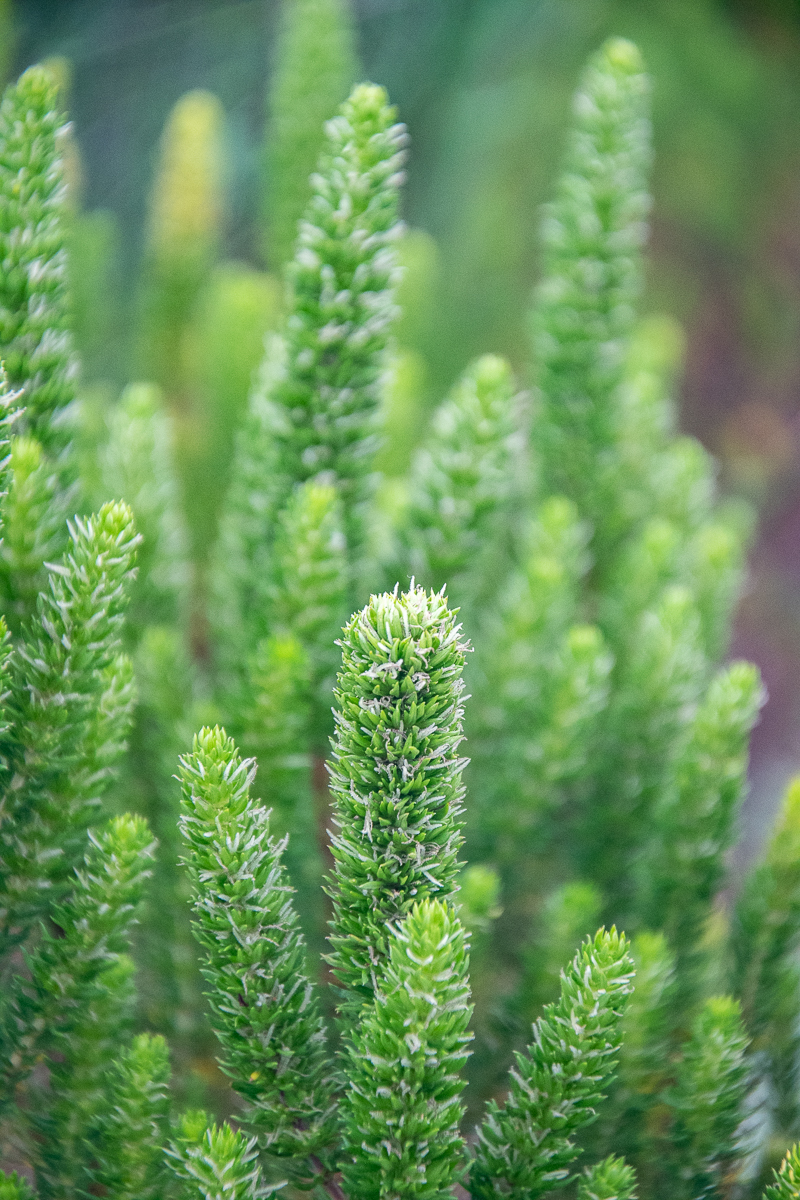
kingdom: Plantae
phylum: Tracheophyta
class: Magnoliopsida
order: Gentianales
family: Rubiaceae
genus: Anthospermum
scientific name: Anthospermum aethiopicum
